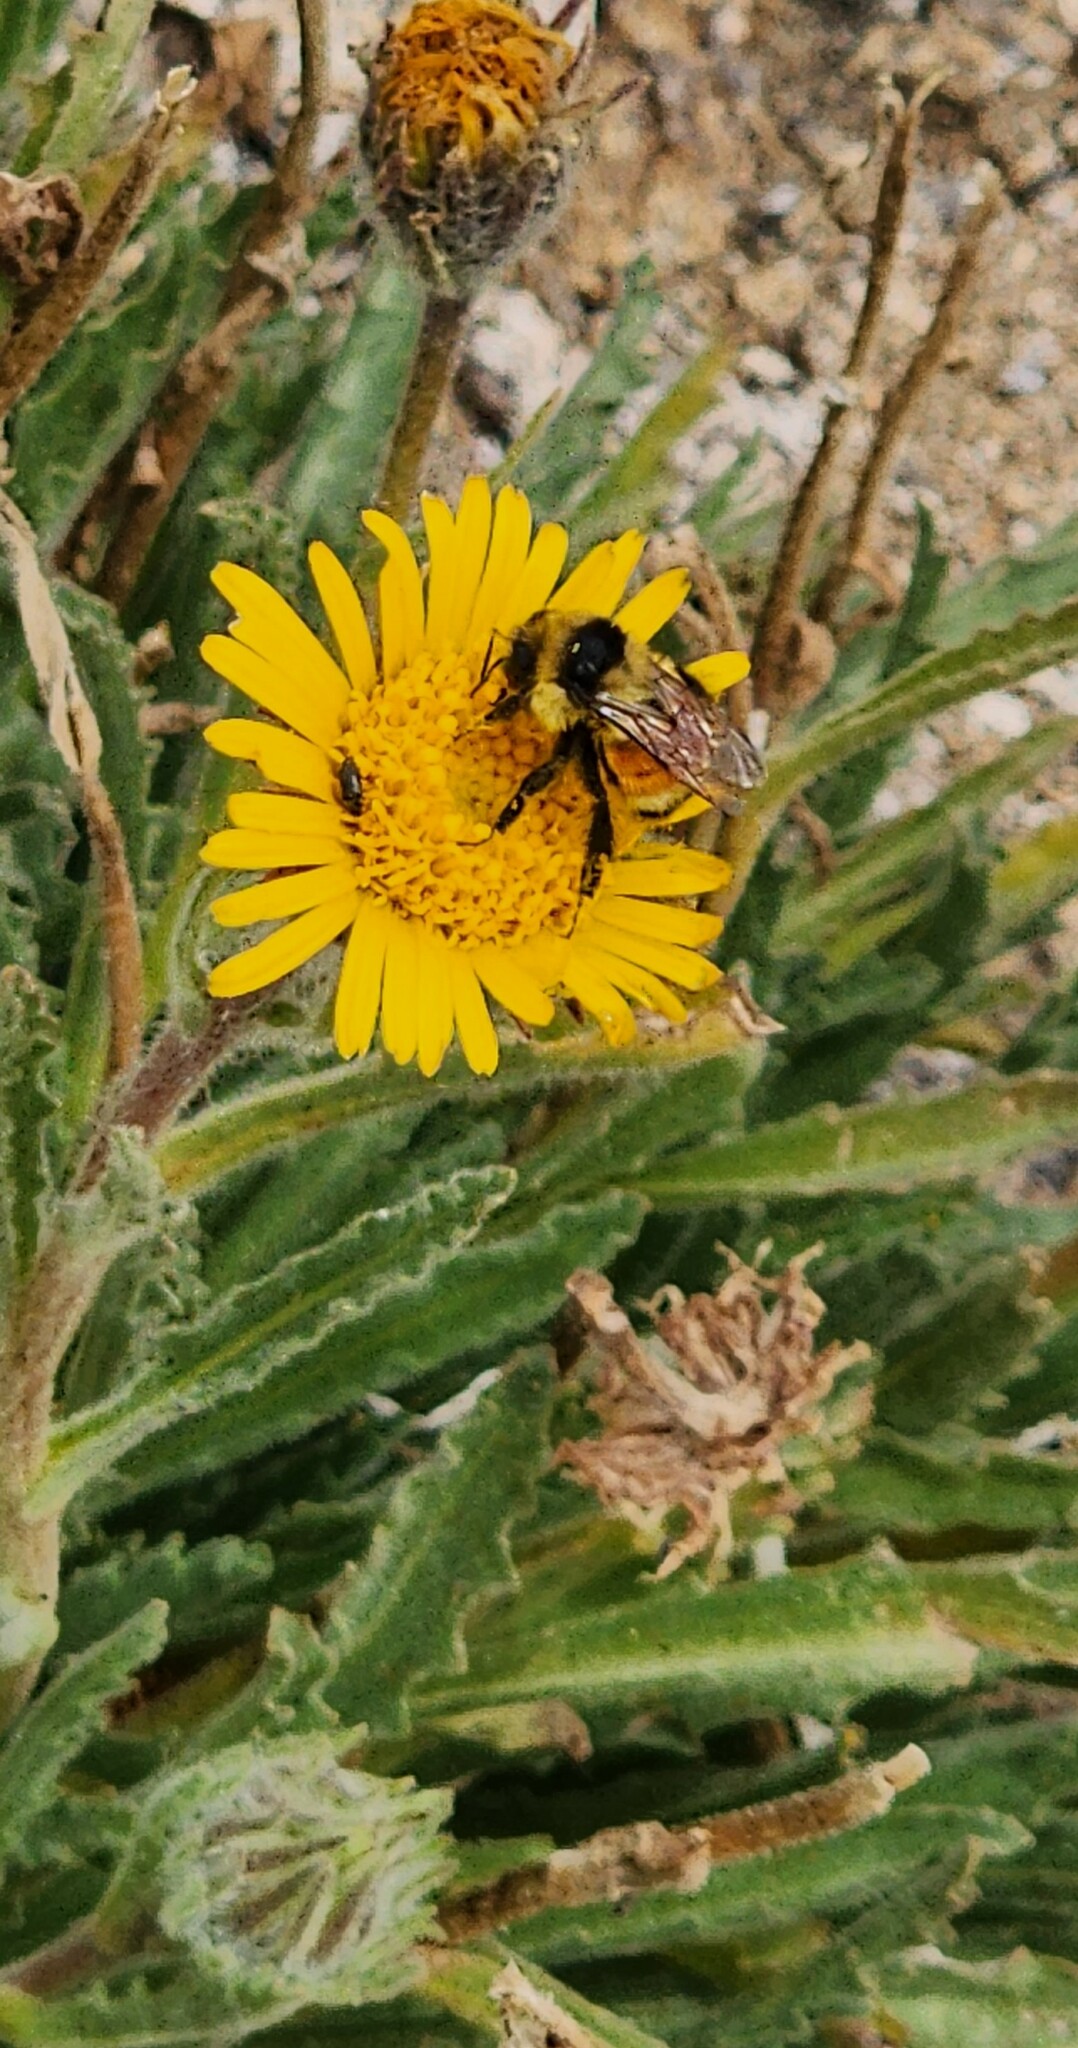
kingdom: Animalia
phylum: Arthropoda
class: Insecta
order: Hymenoptera
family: Apidae
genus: Bombus
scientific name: Bombus huntii
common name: Hunt bumble bee
